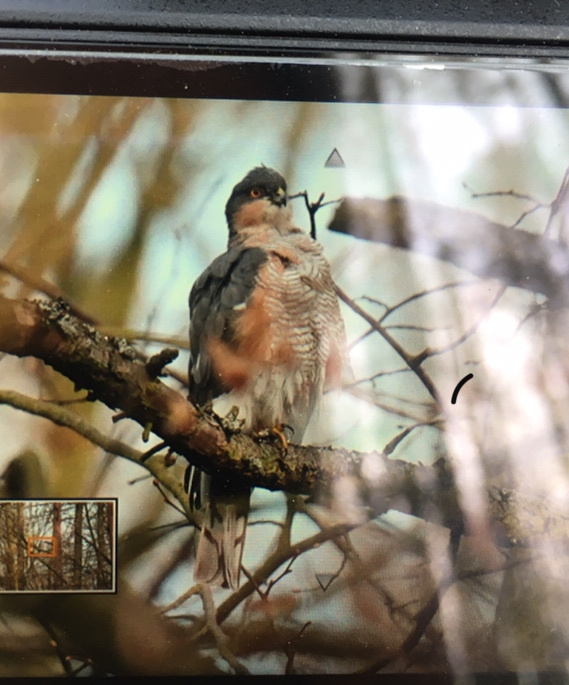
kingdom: Animalia
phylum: Chordata
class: Aves
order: Accipitriformes
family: Accipitridae
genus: Accipiter
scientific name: Accipiter nisus
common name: Eurasian sparrowhawk
